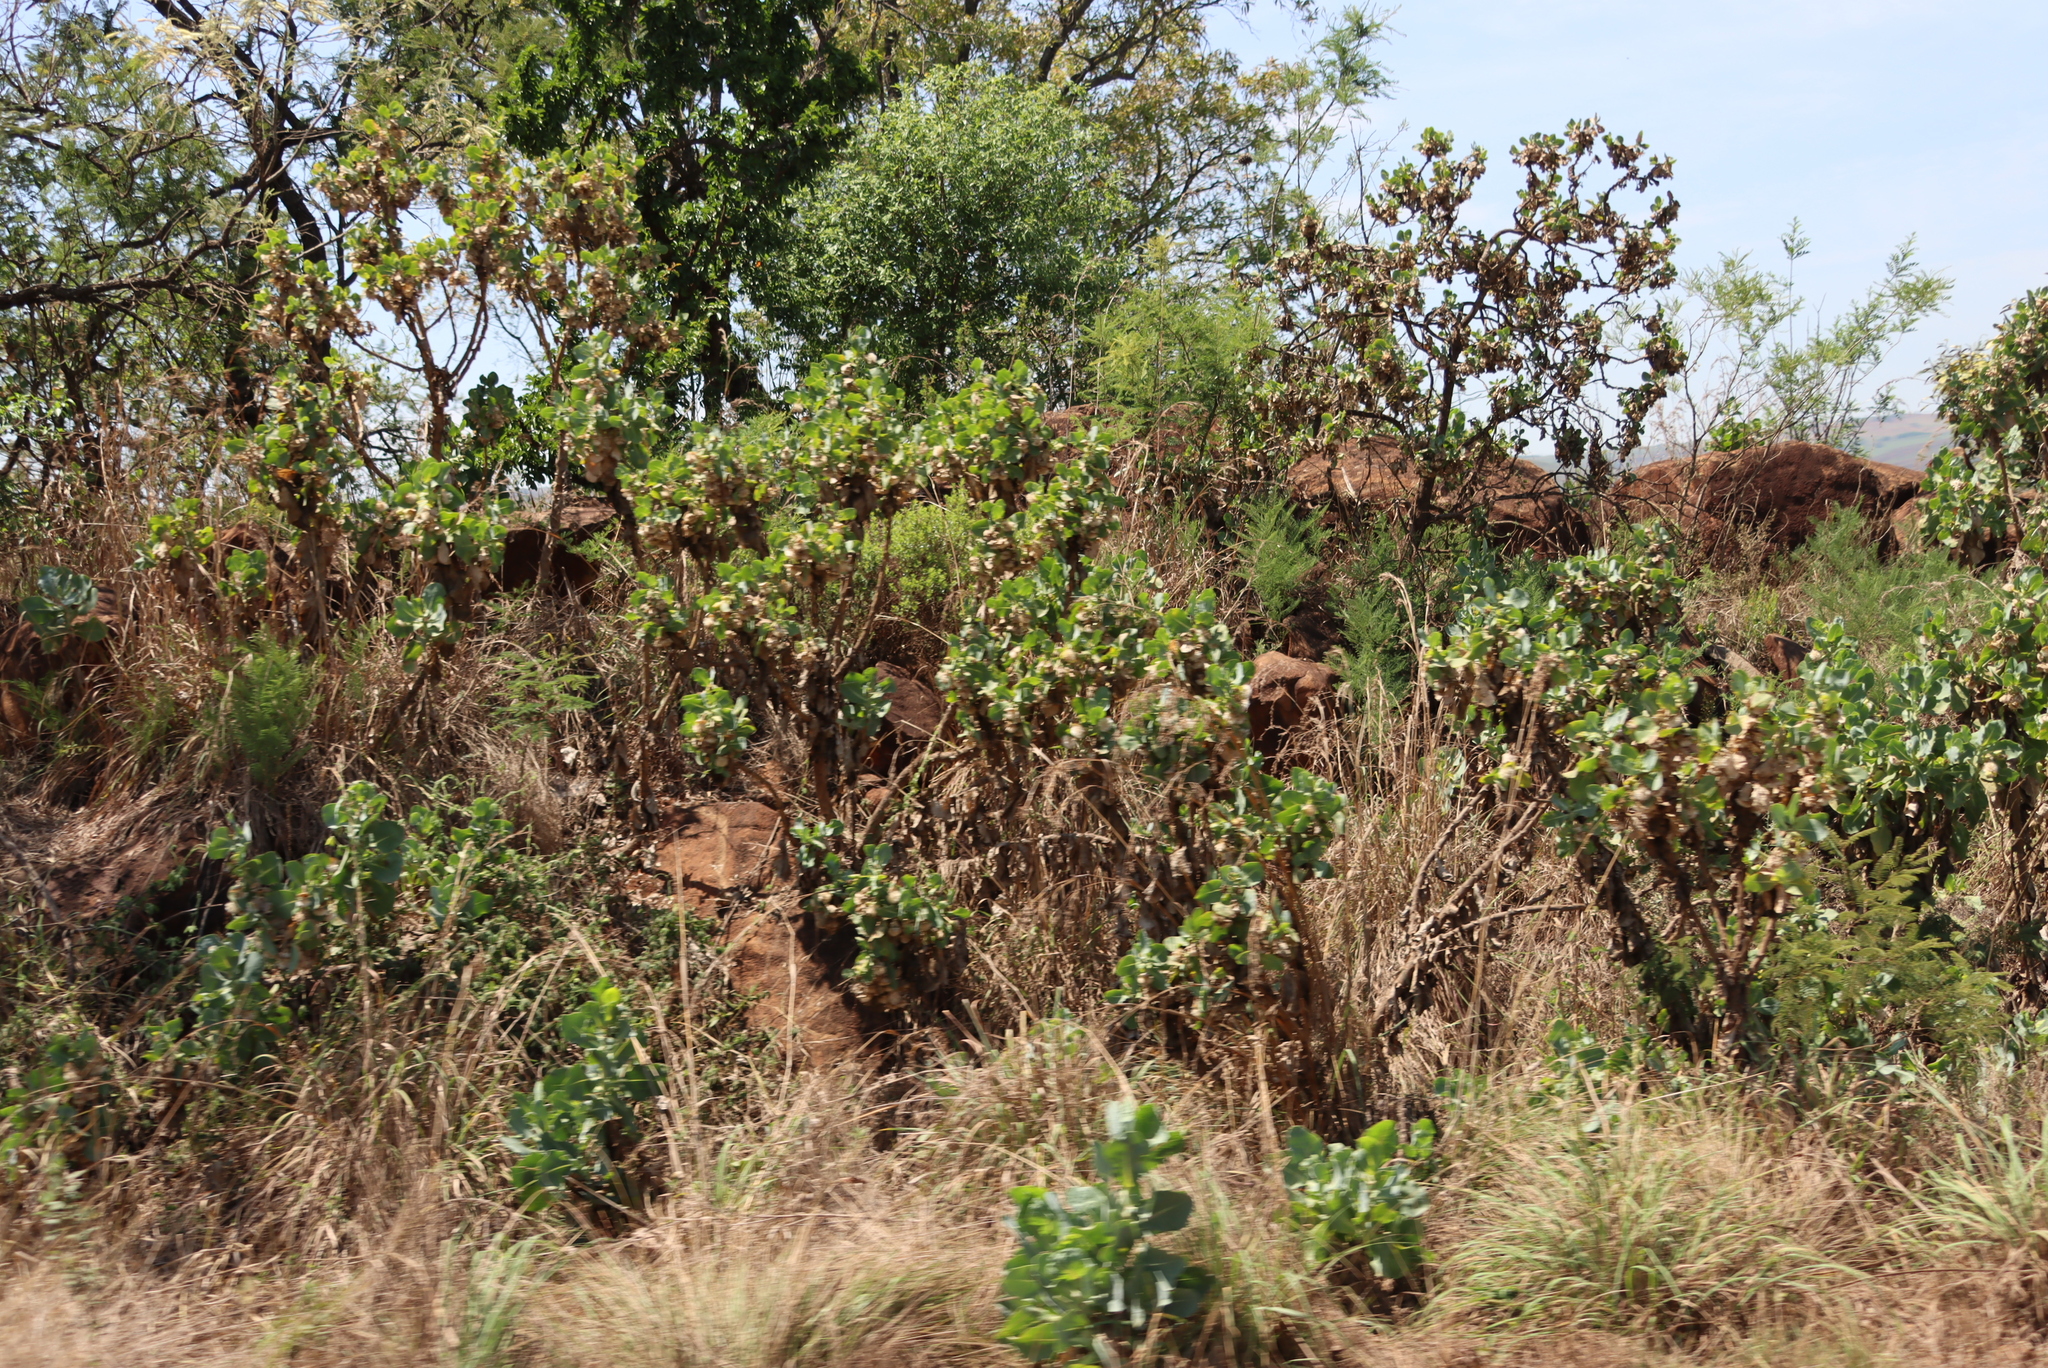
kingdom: Plantae
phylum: Tracheophyta
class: Magnoliopsida
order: Asterales
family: Asteraceae
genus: Lopholaena
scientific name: Lopholaena platyphylla
